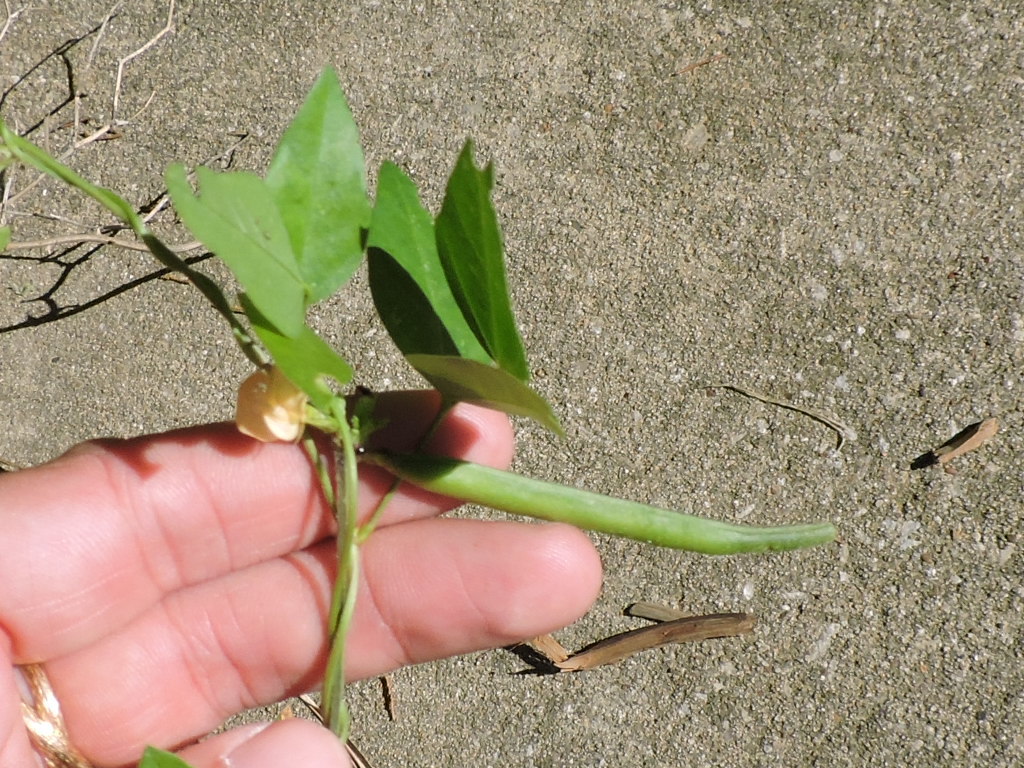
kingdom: Plantae
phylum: Tracheophyta
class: Magnoliopsida
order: Fabales
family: Fabaceae
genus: Strophostyles
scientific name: Strophostyles helvola
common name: Trailing wild bean
